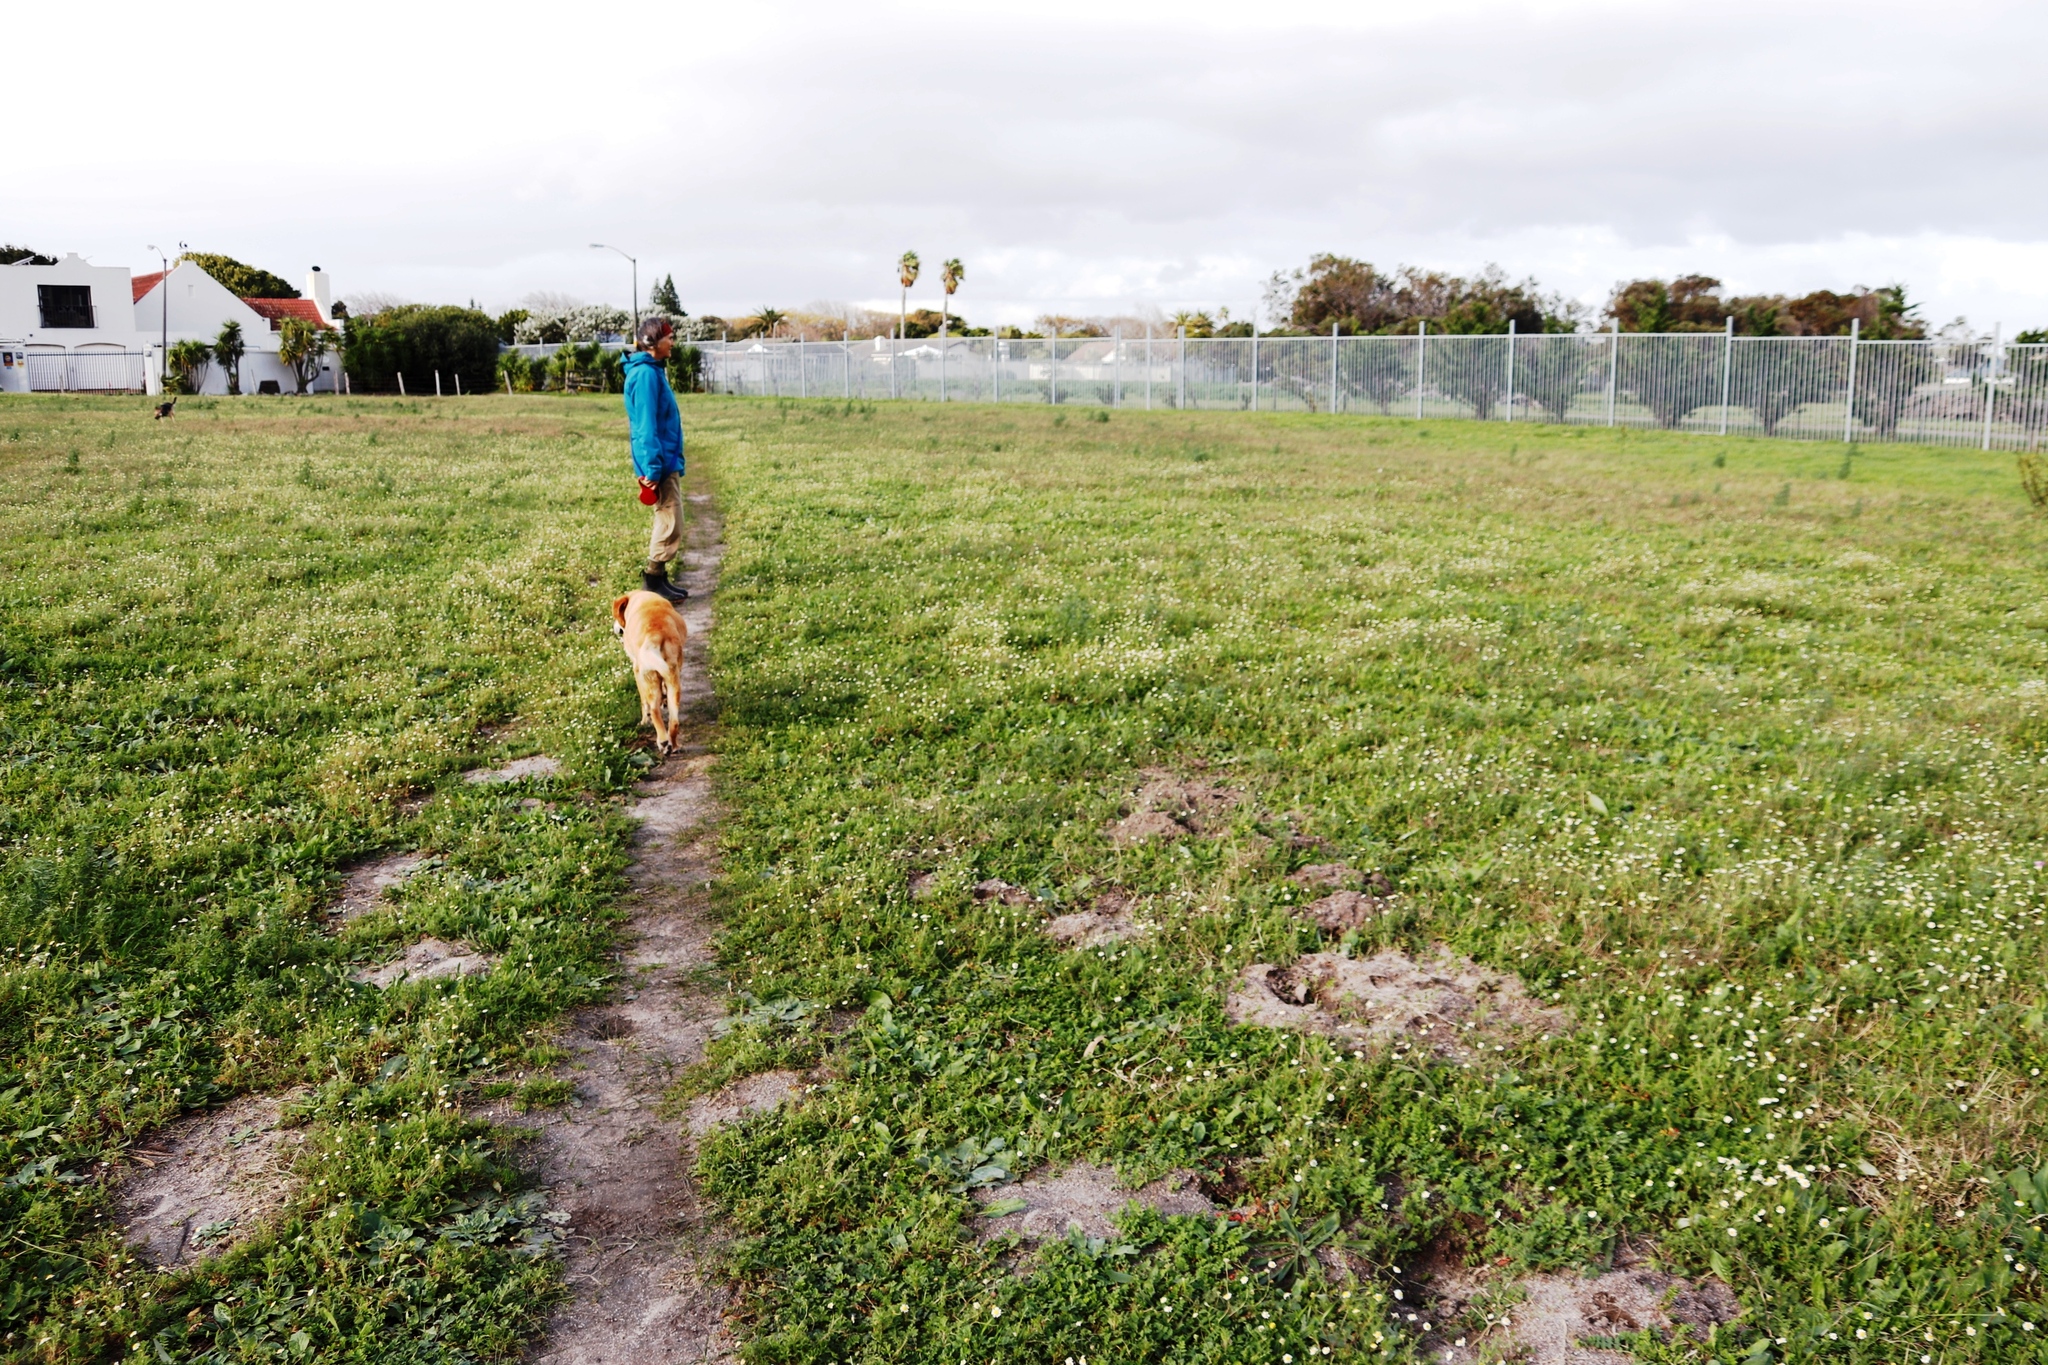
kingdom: Plantae
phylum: Tracheophyta
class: Magnoliopsida
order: Asterales
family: Asteraceae
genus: Cotula
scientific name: Cotula turbinata
